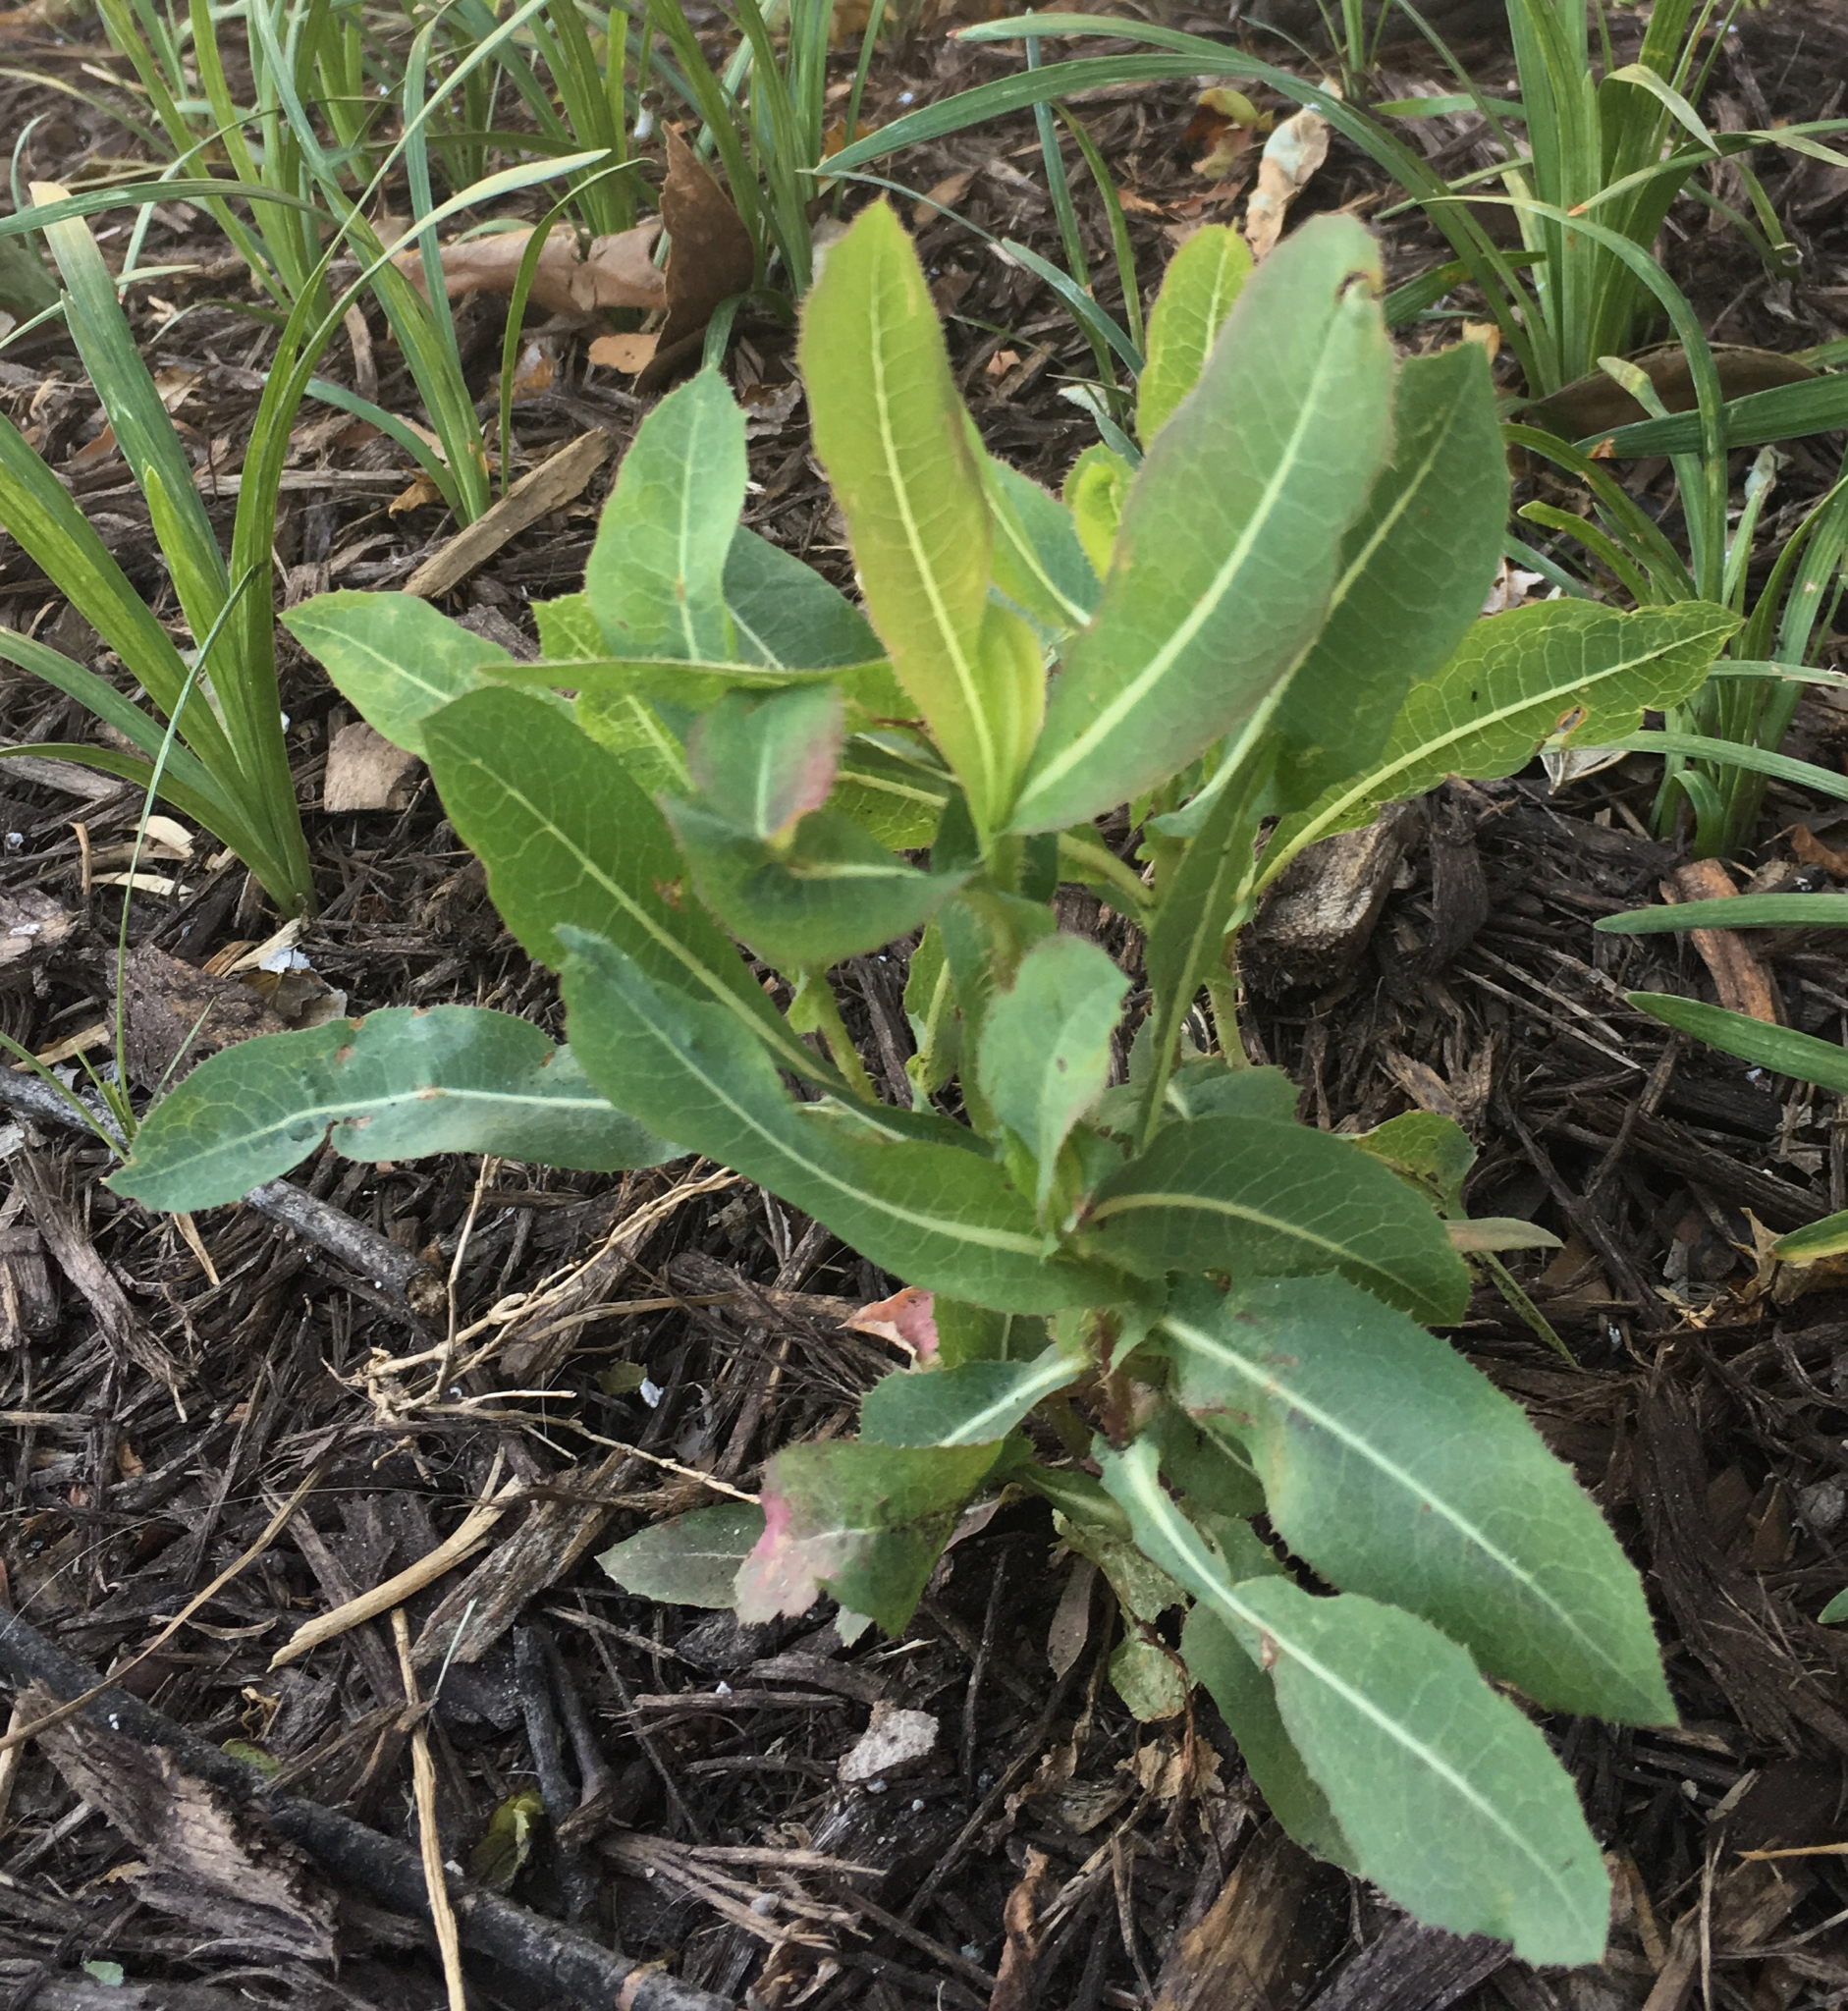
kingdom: Plantae
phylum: Tracheophyta
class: Magnoliopsida
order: Asterales
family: Asteraceae
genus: Lactuca
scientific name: Lactuca serriola
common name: Prickly lettuce
